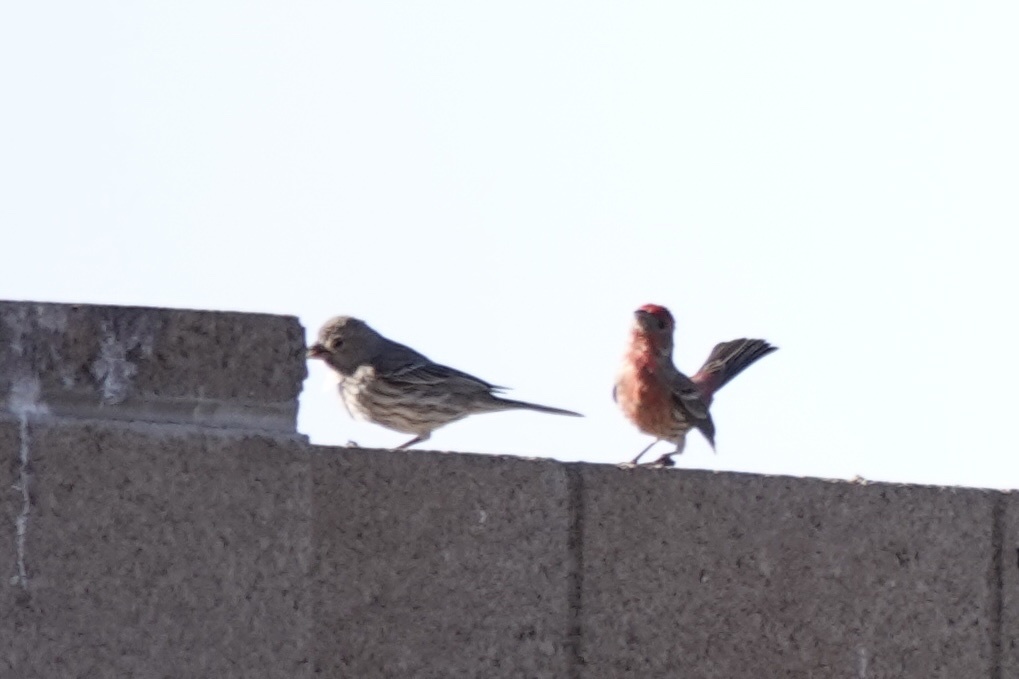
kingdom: Animalia
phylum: Chordata
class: Aves
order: Passeriformes
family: Fringillidae
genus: Haemorhous
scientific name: Haemorhous mexicanus
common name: House finch
